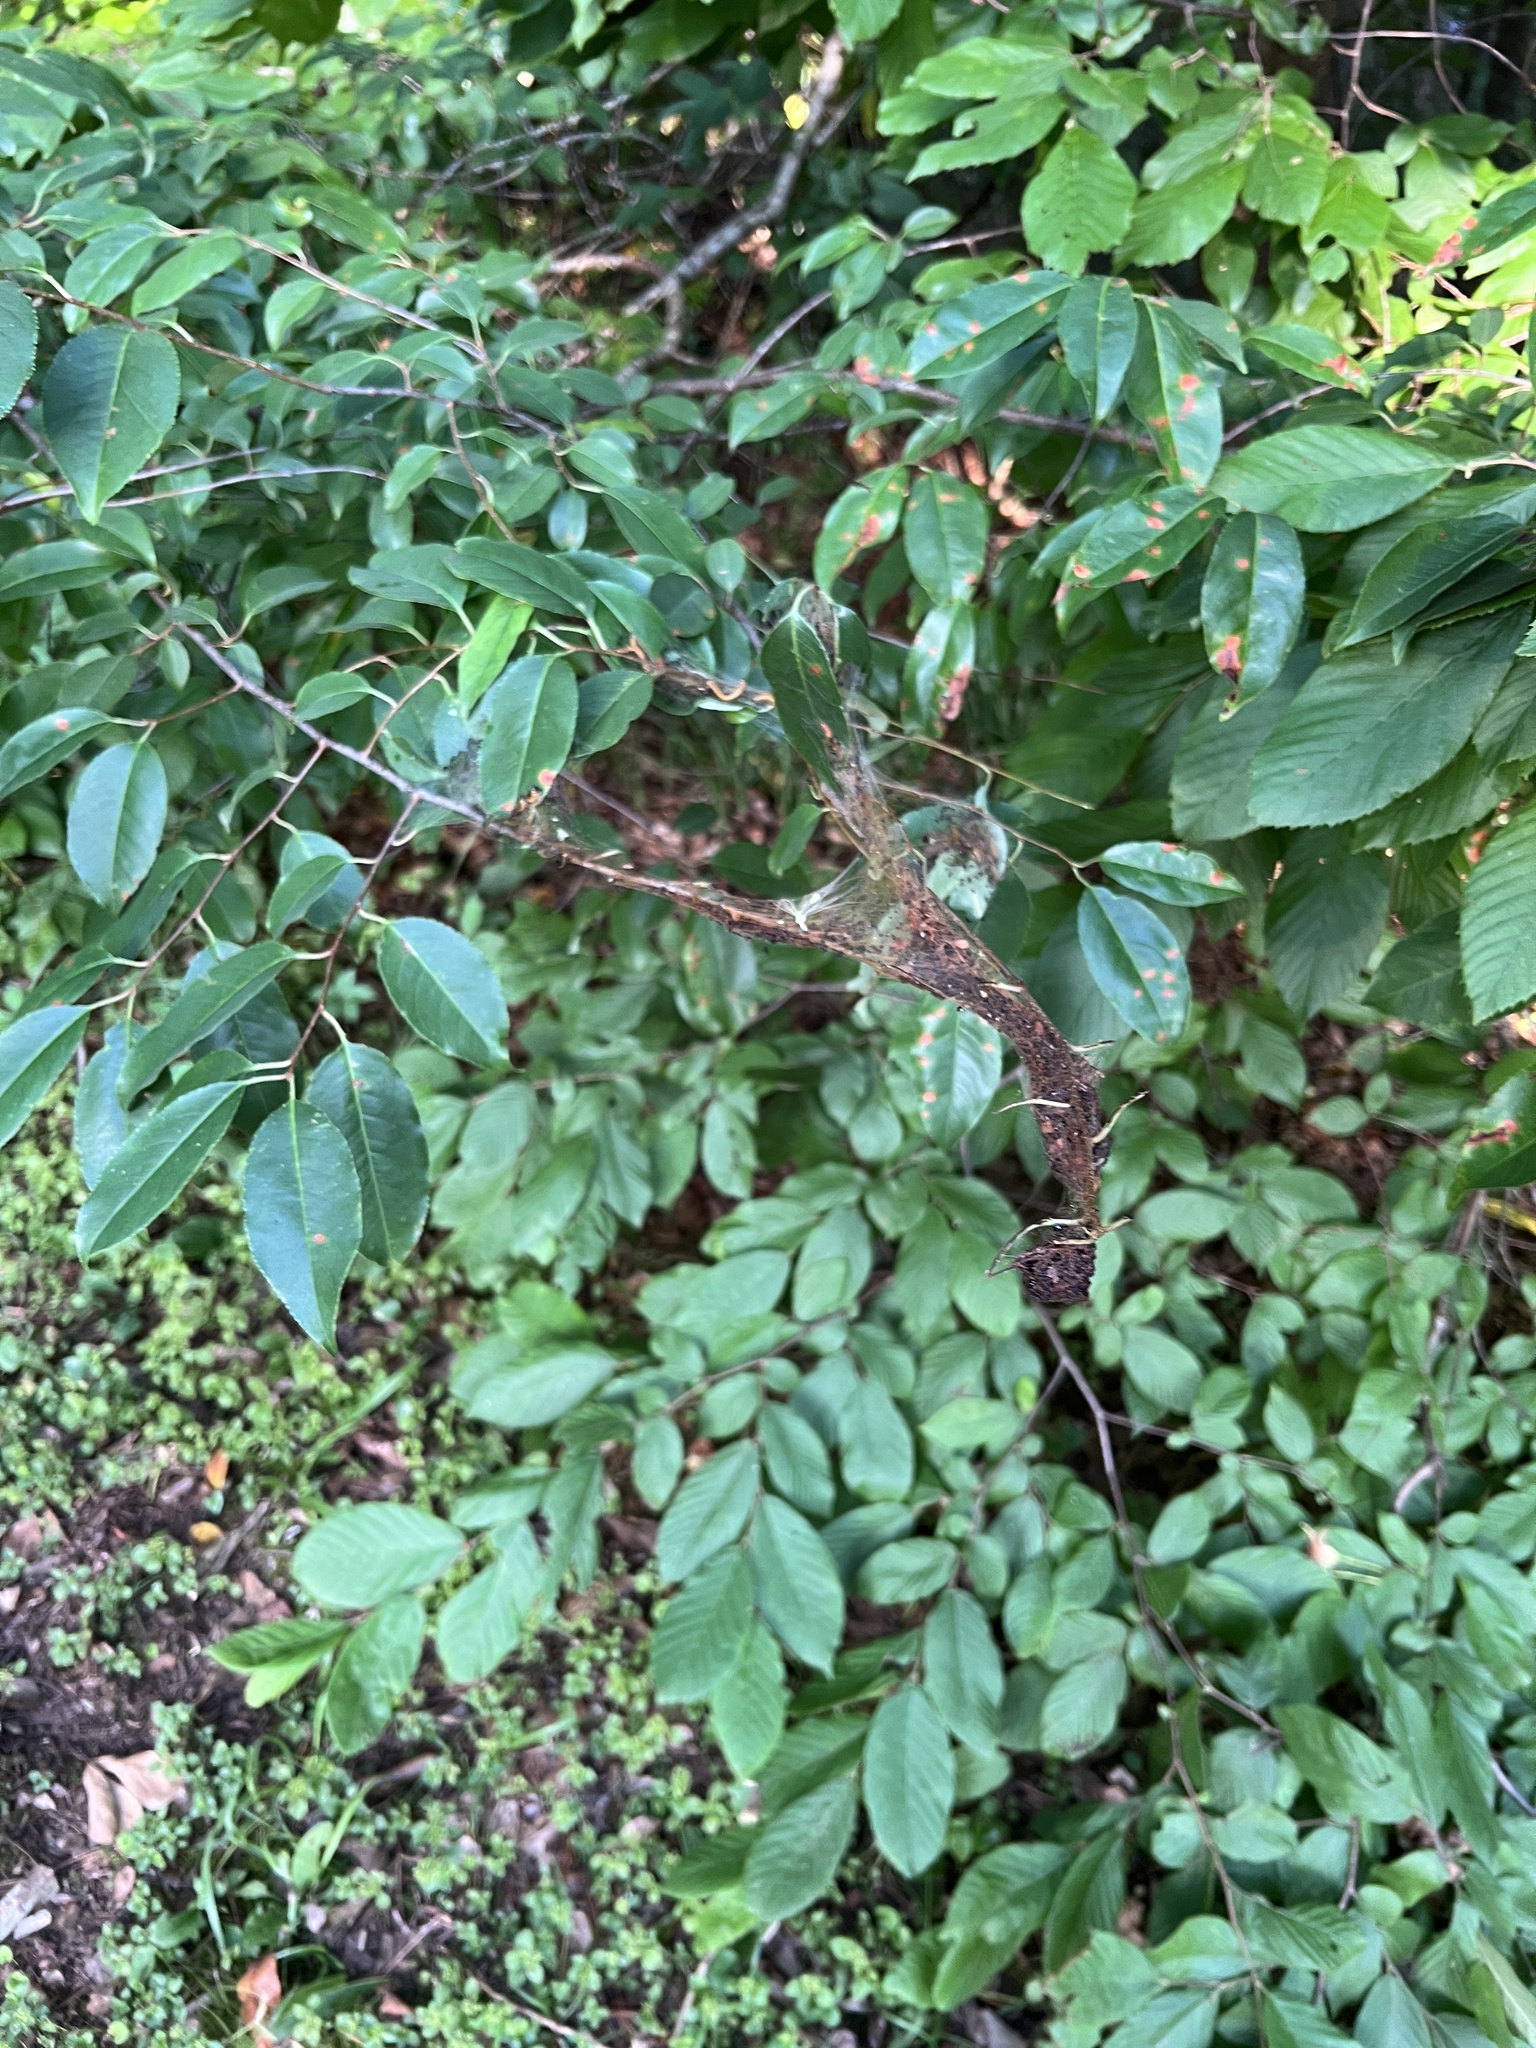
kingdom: Animalia
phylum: Arthropoda
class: Insecta
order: Hymenoptera
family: Pamphiliidae
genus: Neurotoma
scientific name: Neurotoma edwardi
